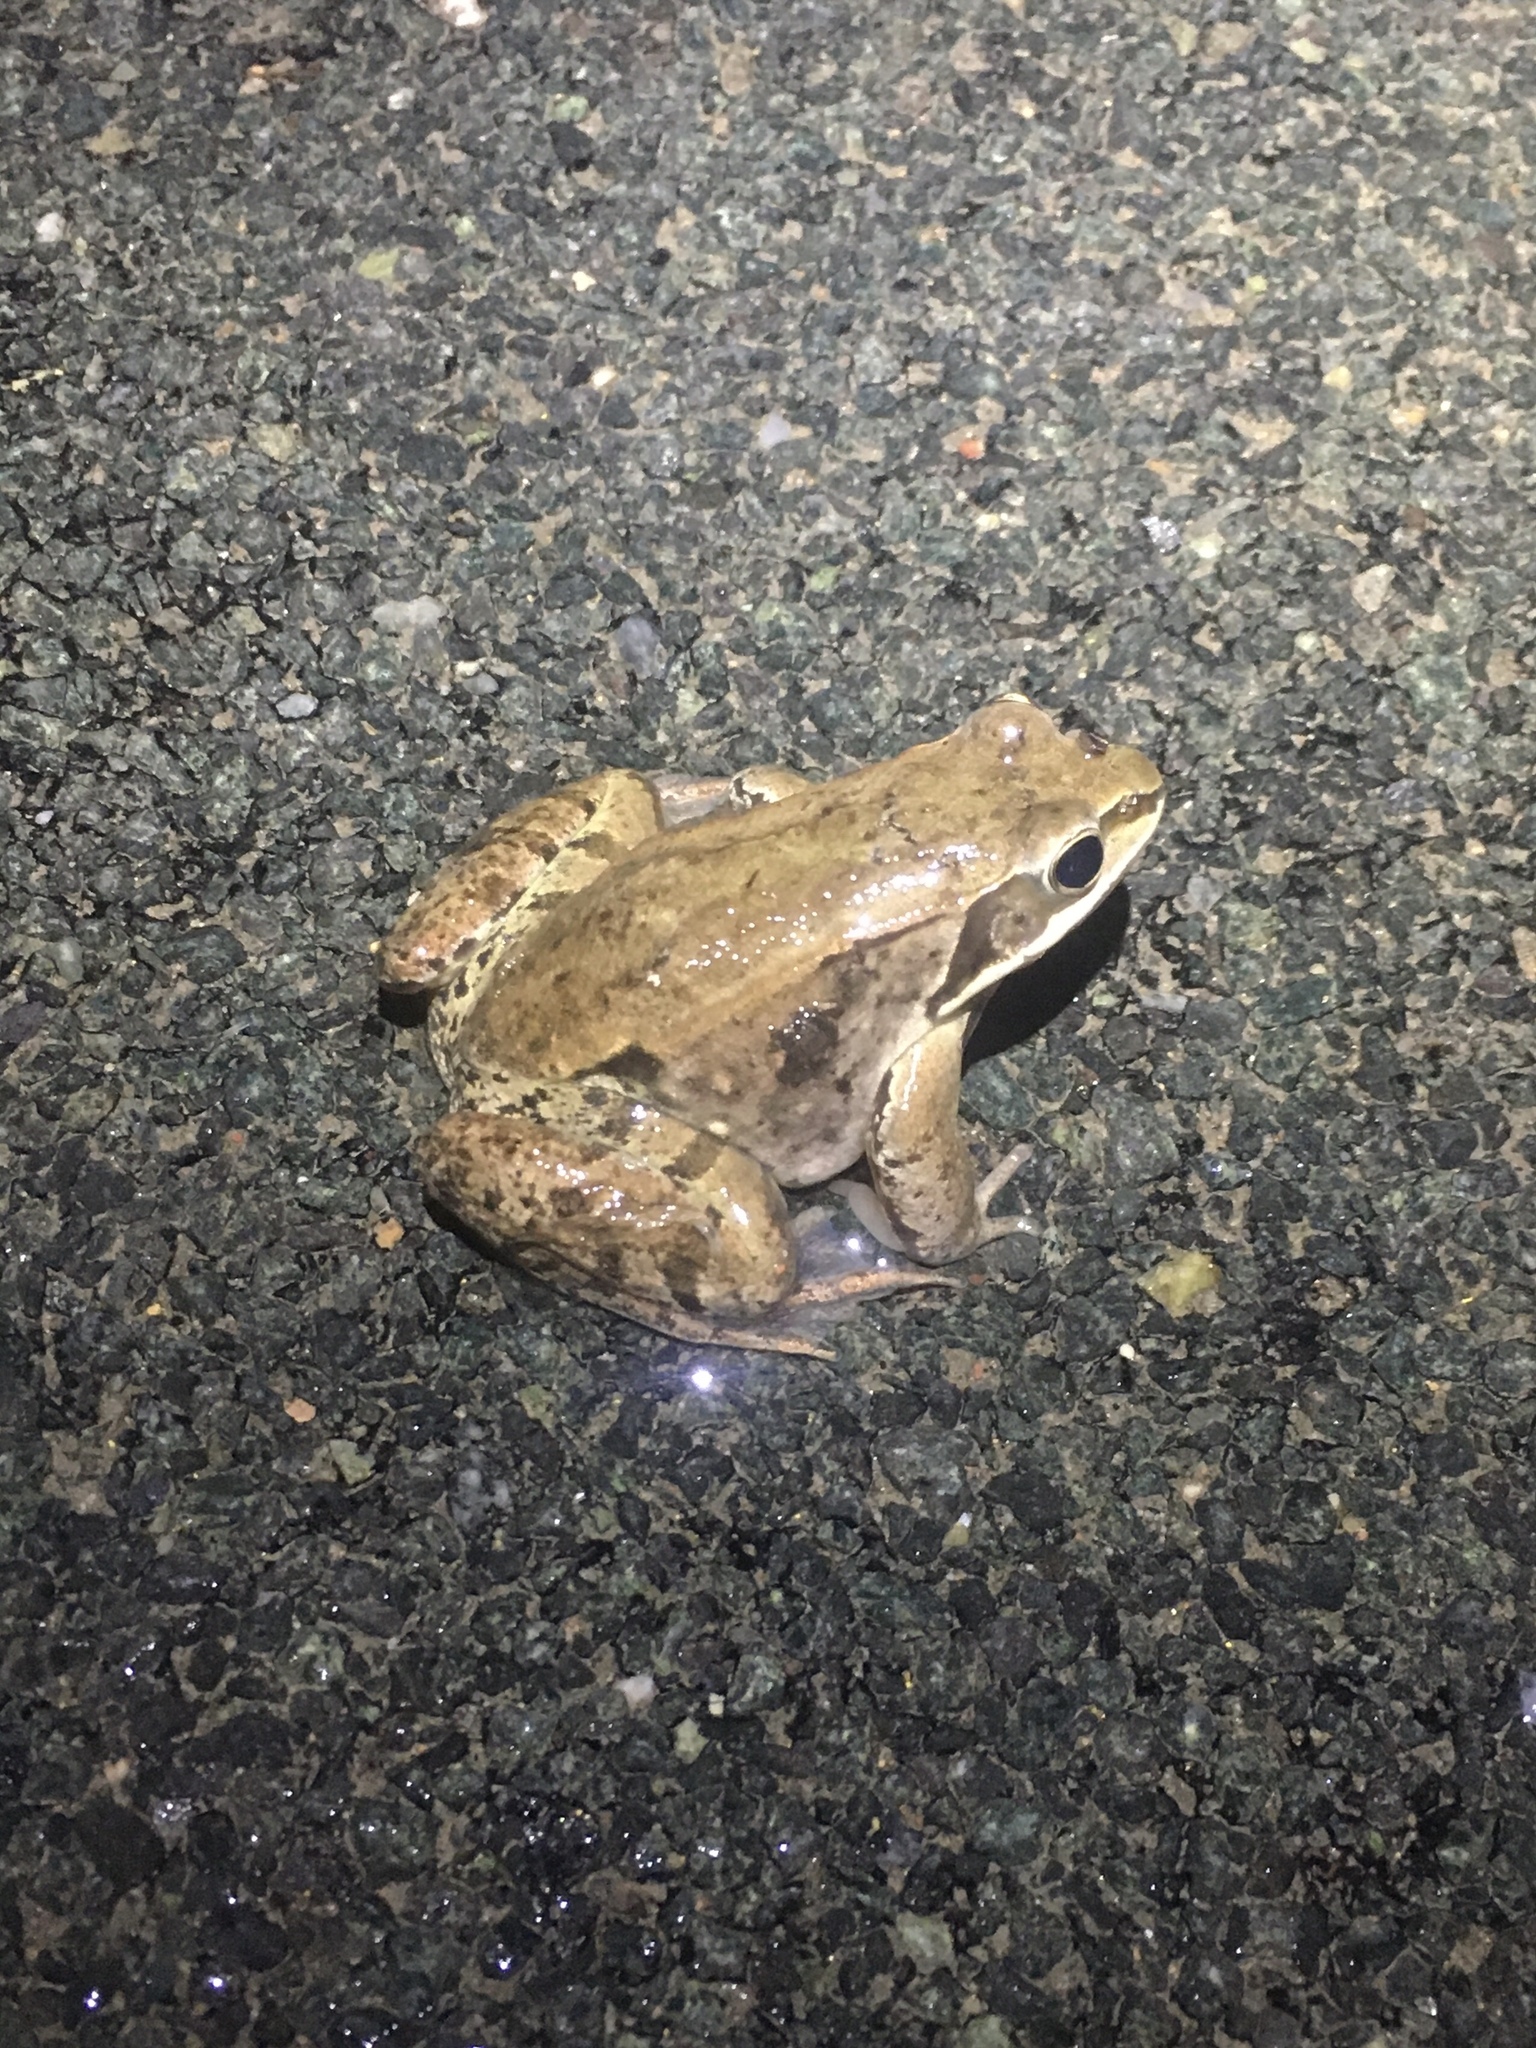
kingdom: Animalia
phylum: Chordata
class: Amphibia
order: Anura
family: Ranidae
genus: Lithobates
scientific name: Lithobates sylvaticus
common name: Wood frog
